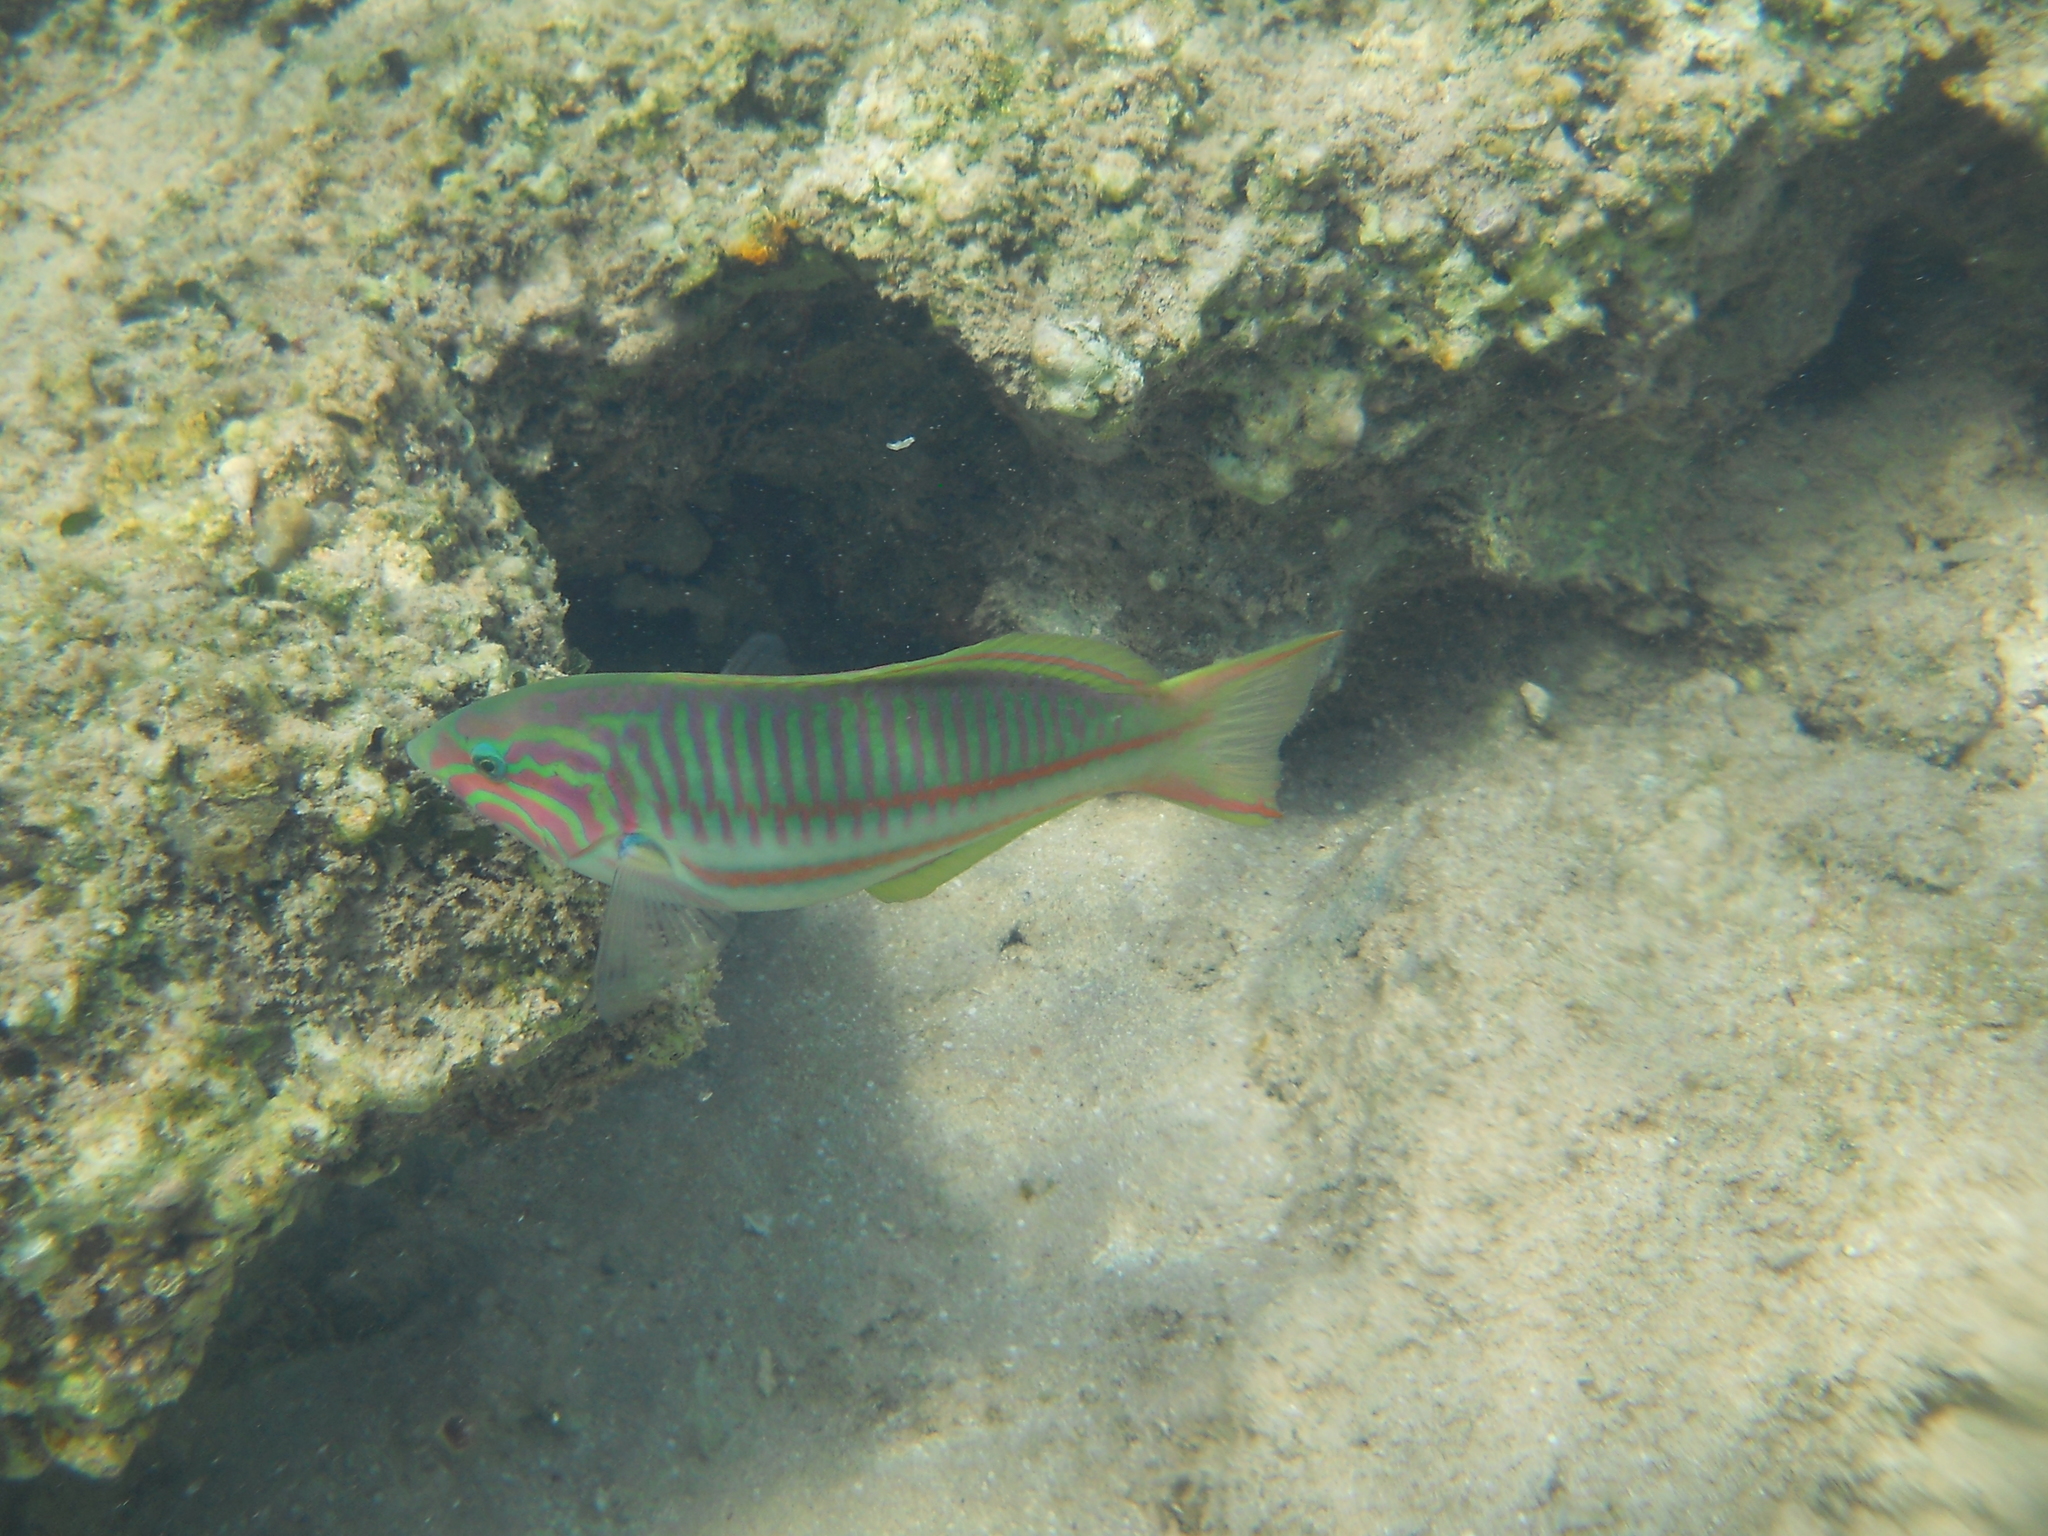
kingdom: Animalia
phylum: Chordata
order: Perciformes
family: Labridae
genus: Thalassoma
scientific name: Thalassoma rueppellii
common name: Klunzinger's wrasse
